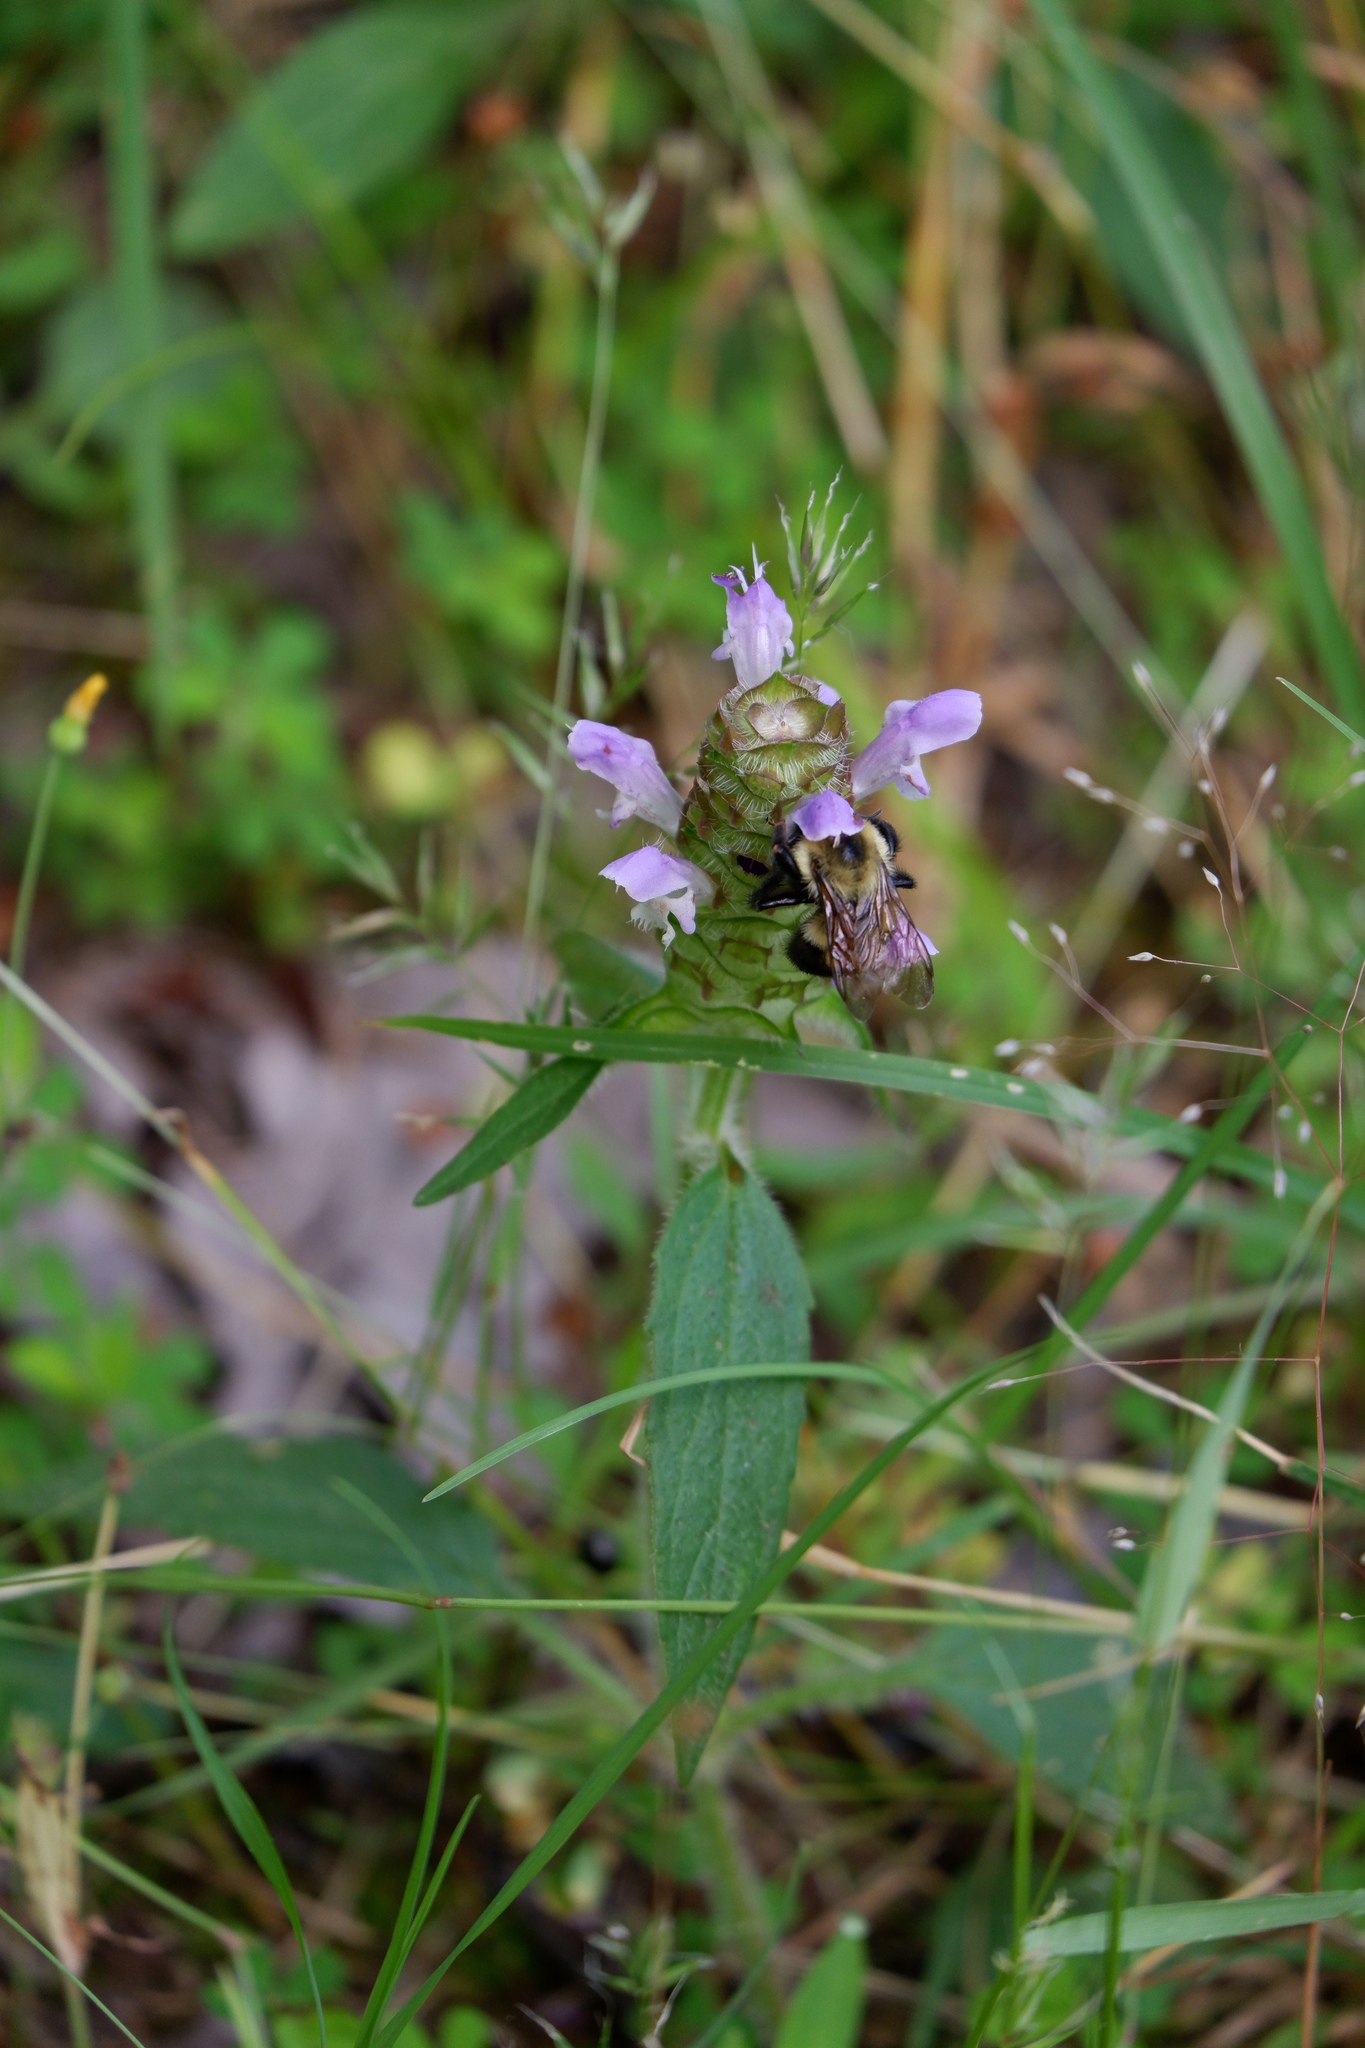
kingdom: Plantae
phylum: Tracheophyta
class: Magnoliopsida
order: Lamiales
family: Lamiaceae
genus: Prunella
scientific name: Prunella vulgaris
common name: Heal-all
